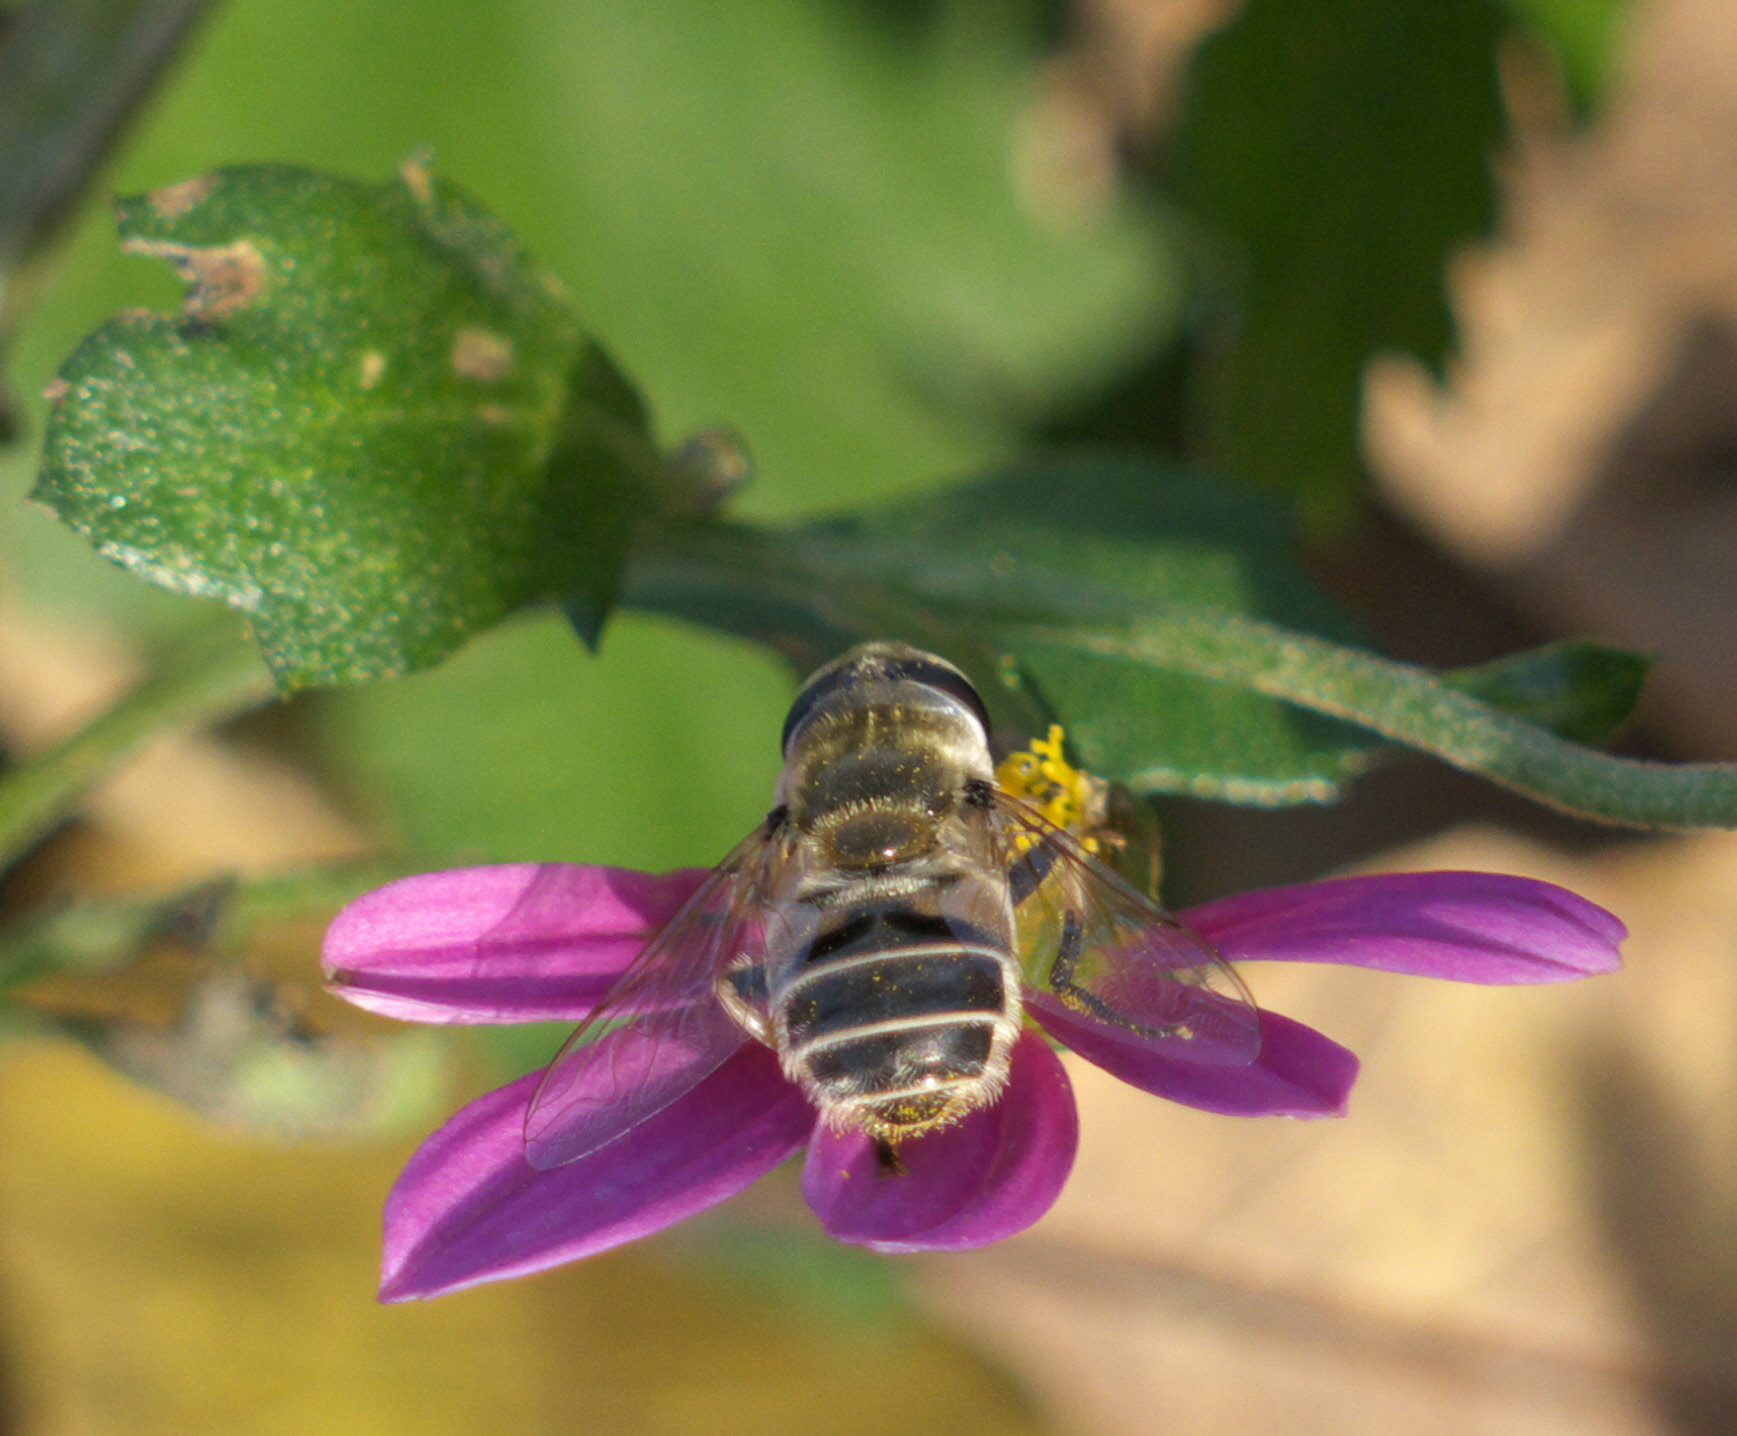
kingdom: Animalia
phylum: Arthropoda
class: Insecta
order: Diptera
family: Syrphidae
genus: Eristalis
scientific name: Eristalis stipator
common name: Yellow-shouldered drone fly
